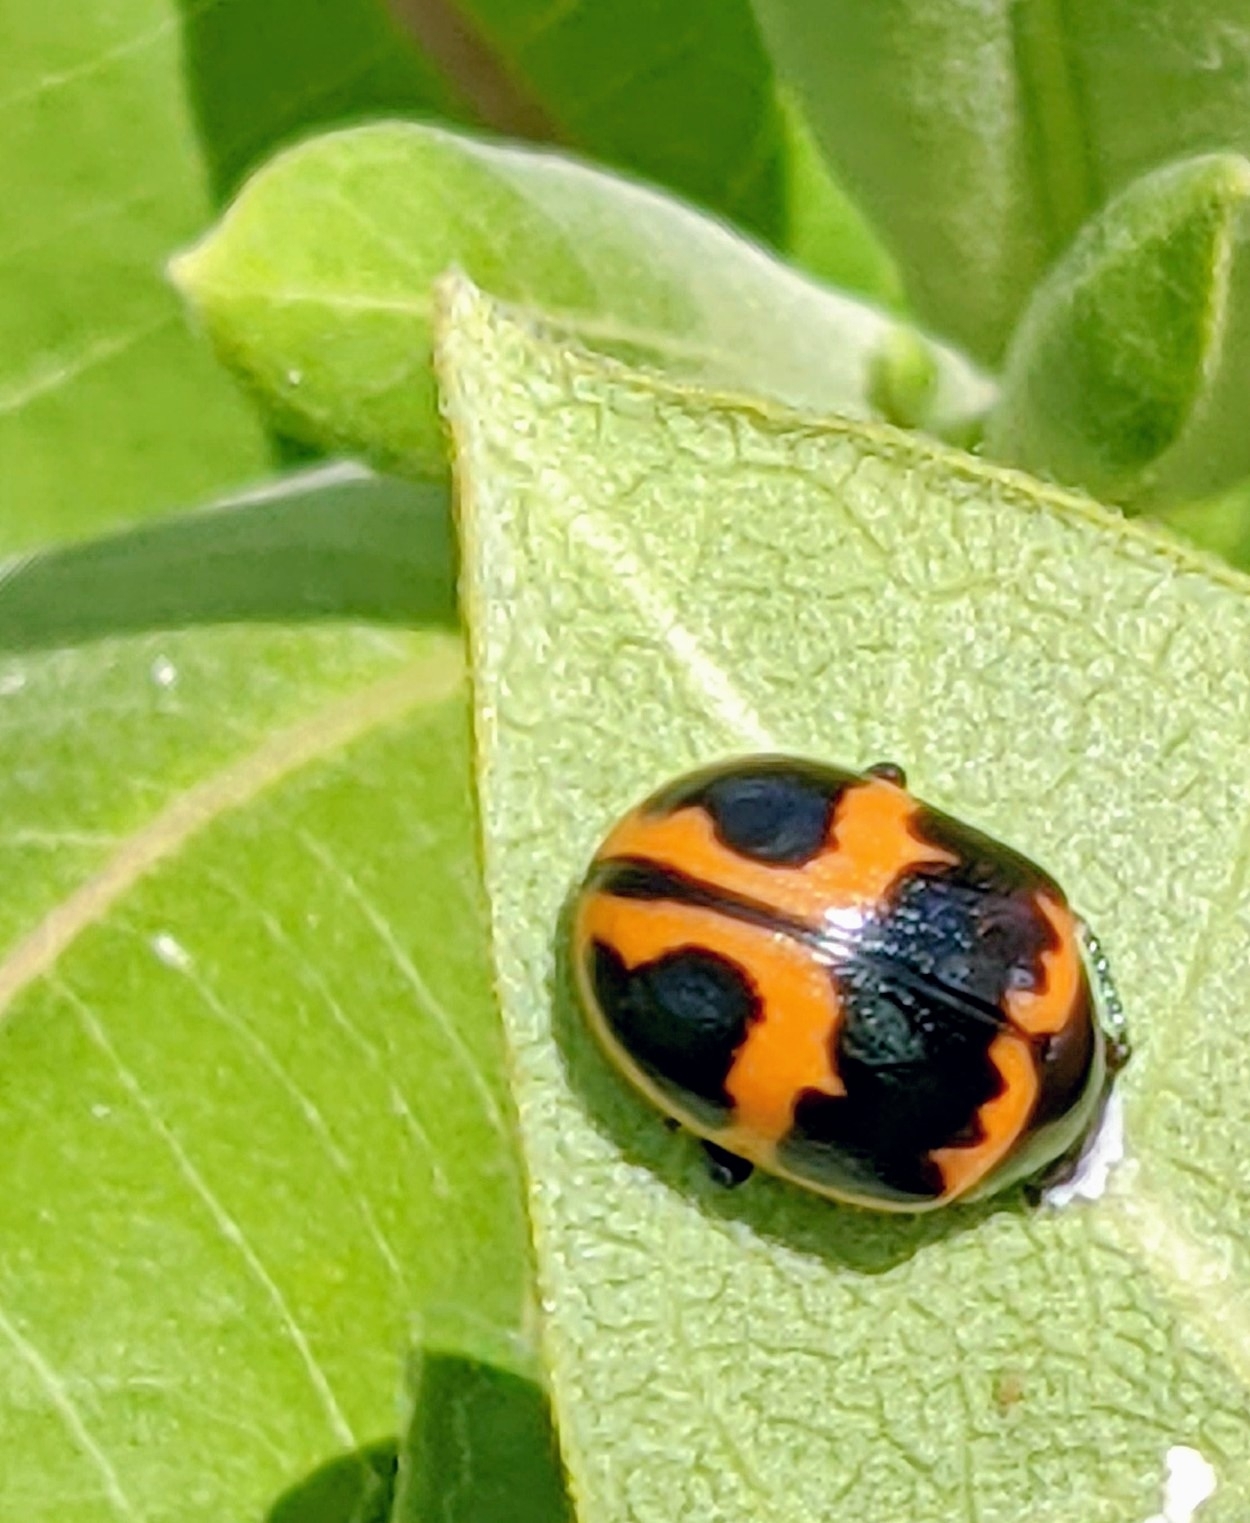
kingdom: Animalia
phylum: Arthropoda
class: Insecta
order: Coleoptera
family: Chrysomelidae
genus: Labidomera
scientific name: Labidomera clivicollis
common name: Swamp milkweed leaf beetle
